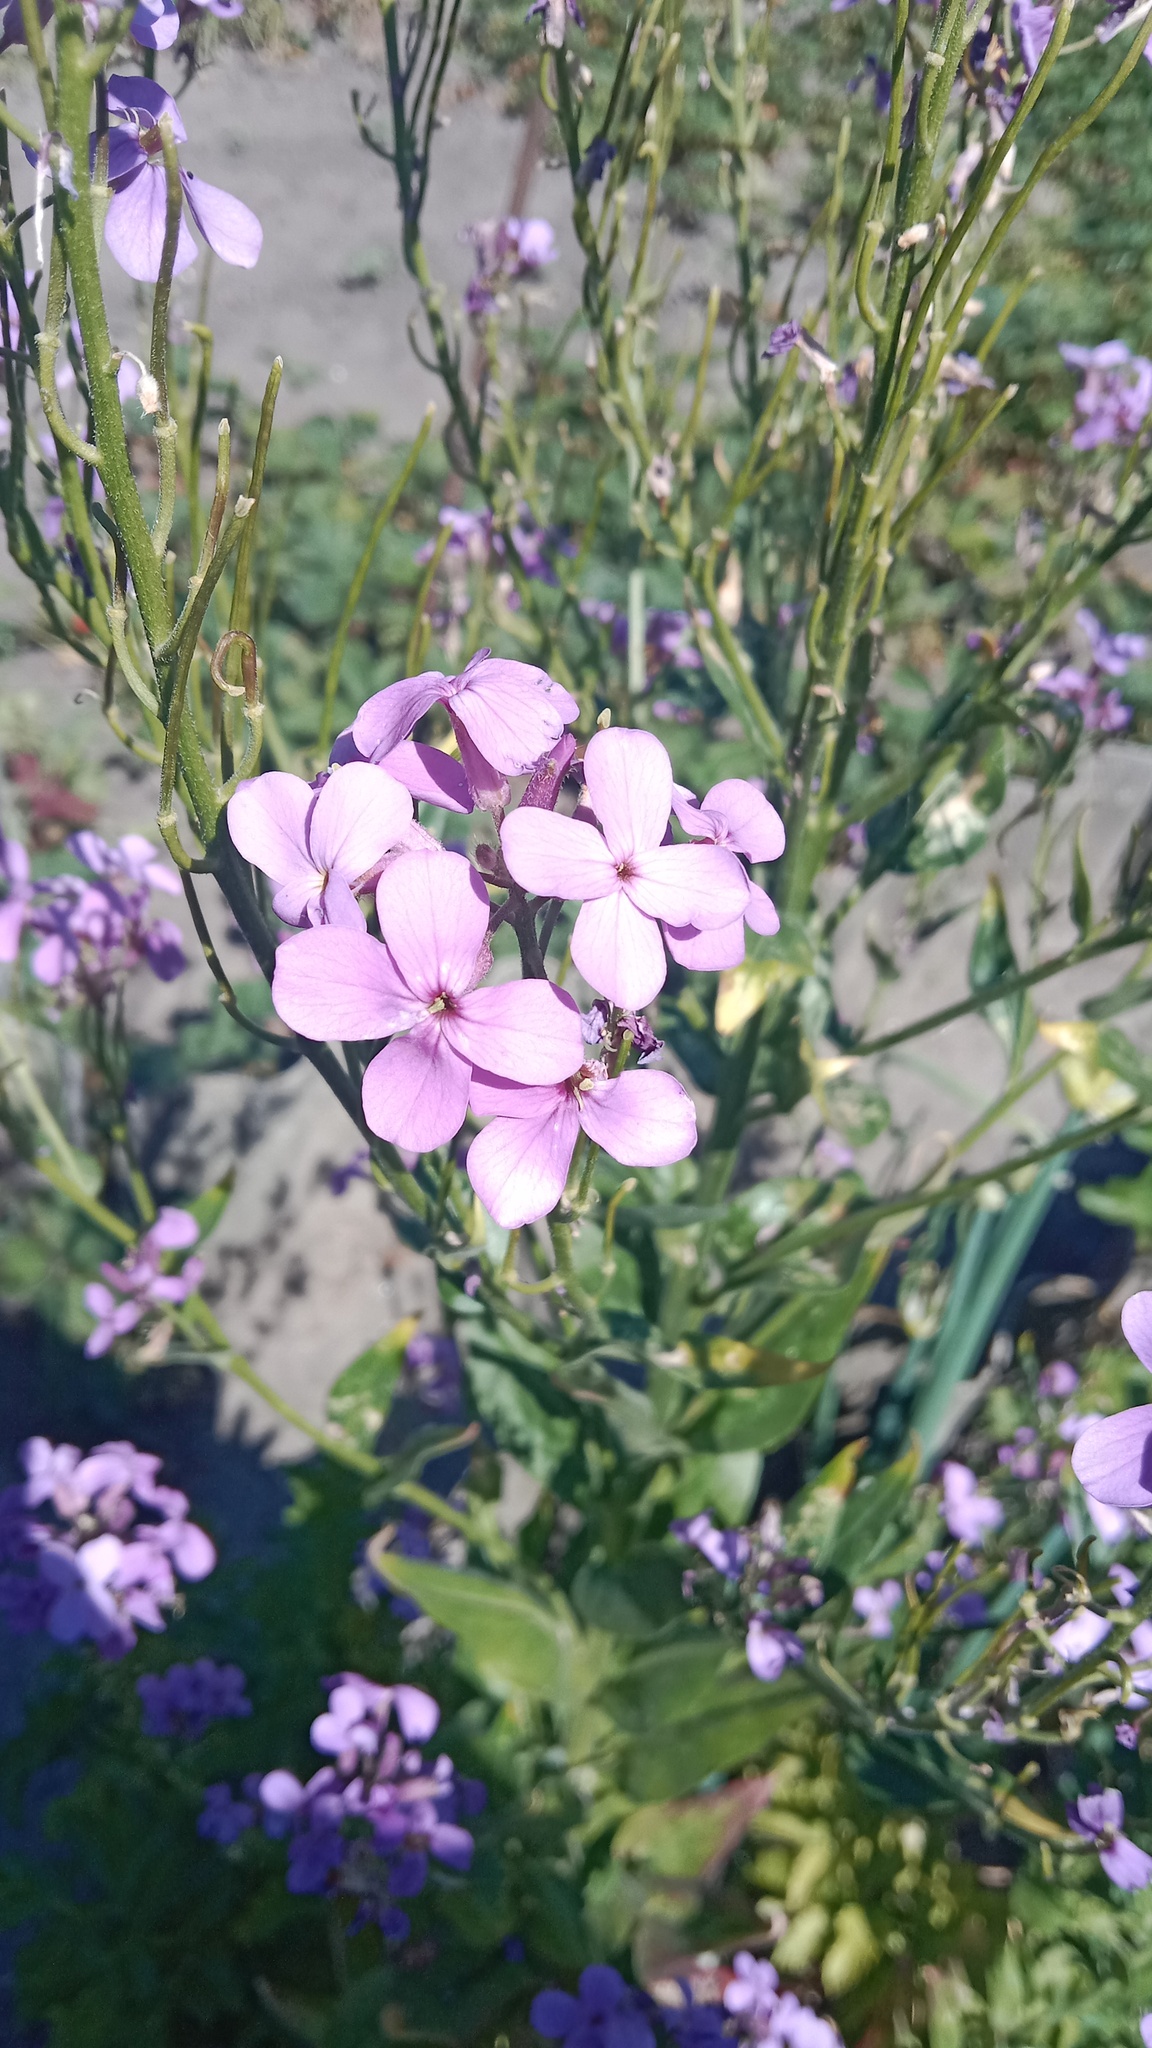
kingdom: Plantae
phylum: Tracheophyta
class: Magnoliopsida
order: Brassicales
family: Brassicaceae
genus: Hesperis
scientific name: Hesperis matronalis
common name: Dame's-violet
